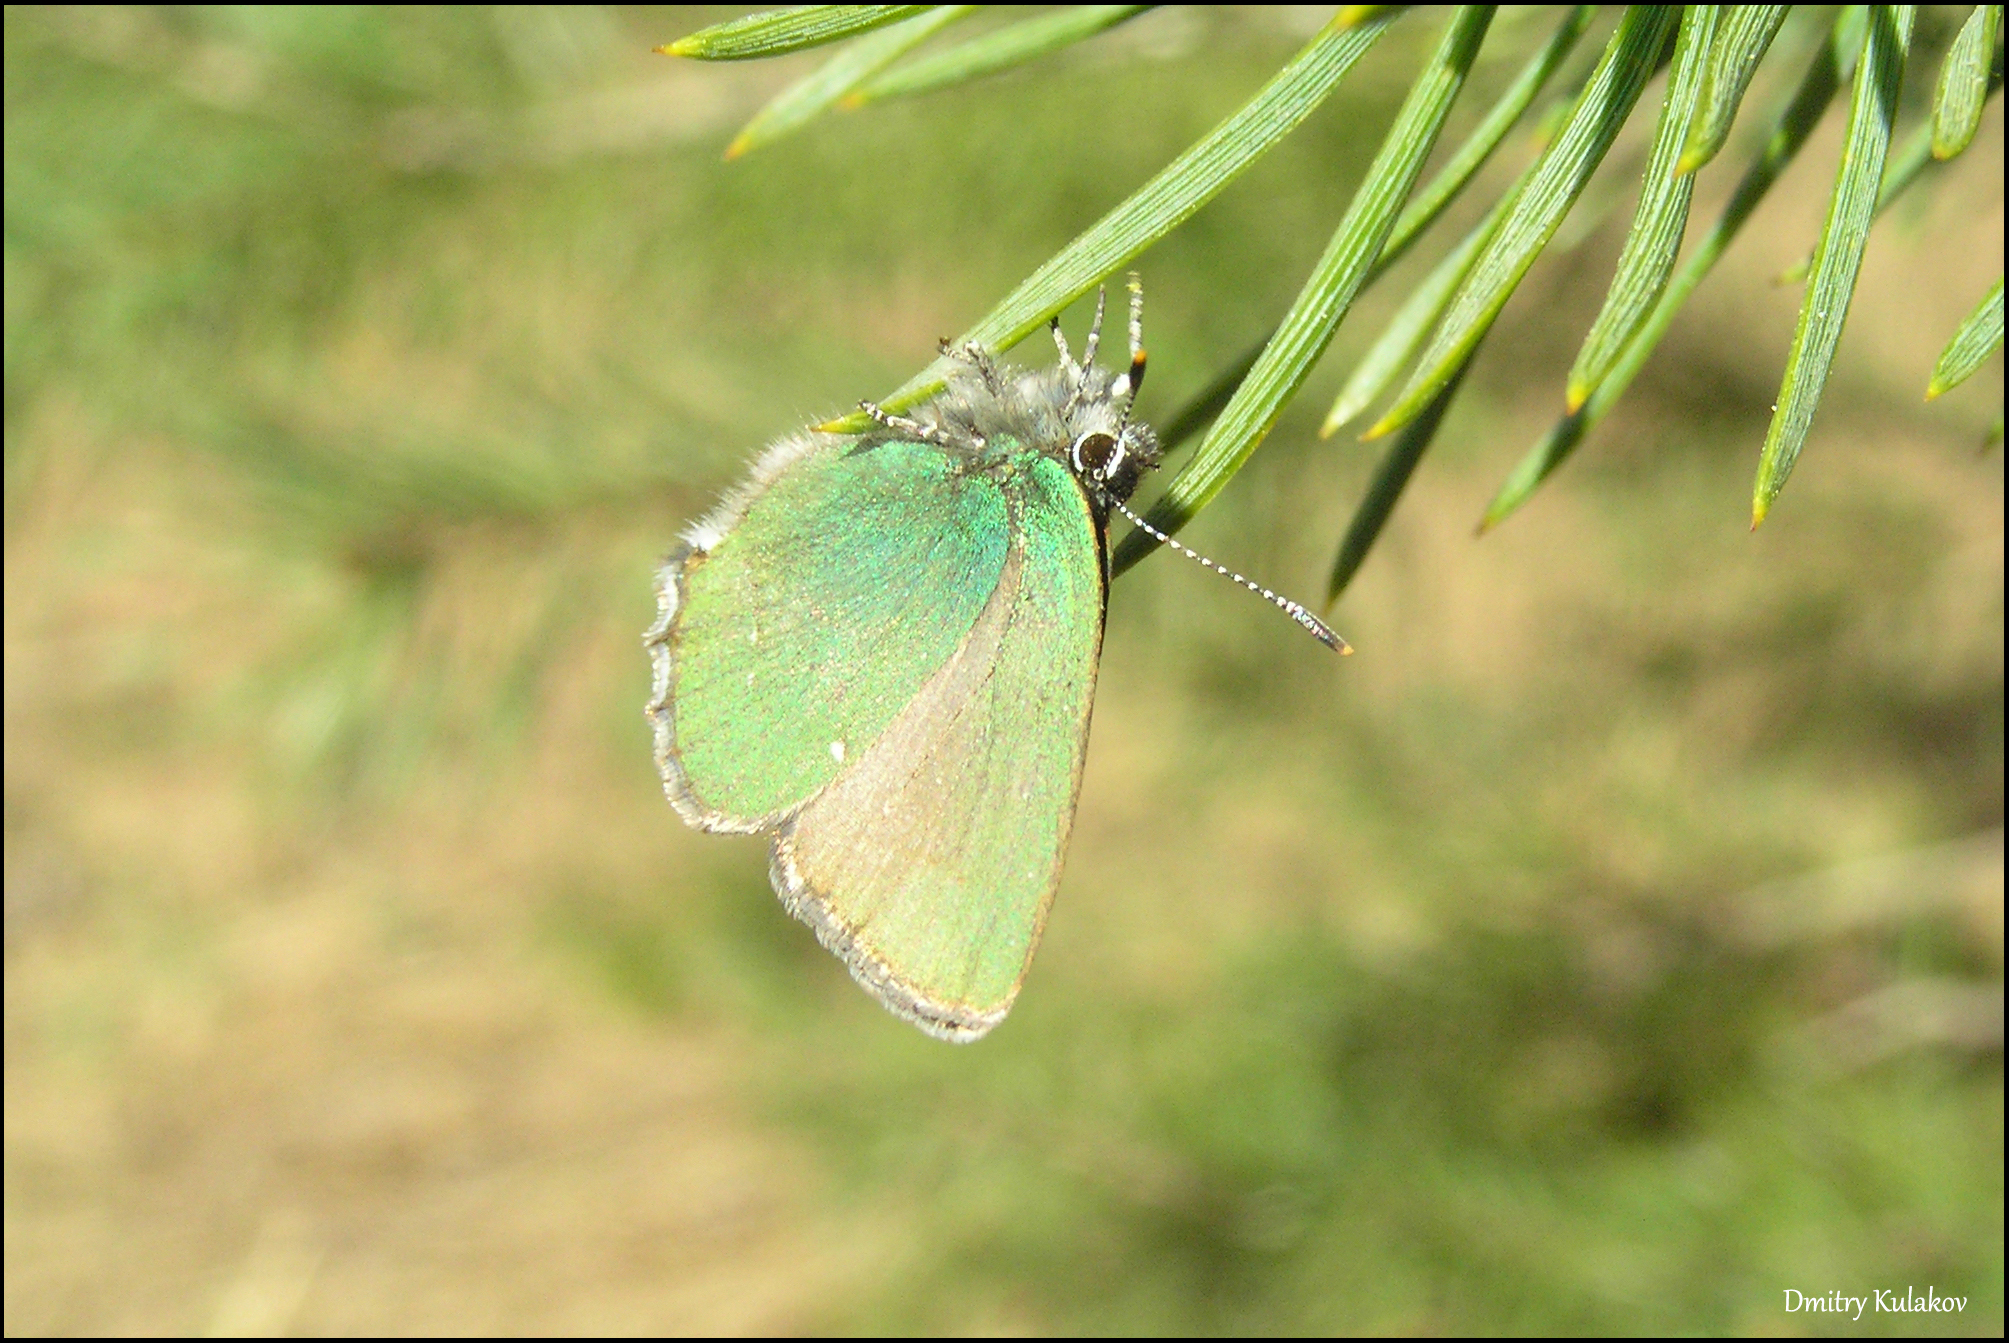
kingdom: Animalia
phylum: Arthropoda
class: Insecta
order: Lepidoptera
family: Lycaenidae
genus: Callophrys
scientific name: Callophrys rubi
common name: Green hairstreak
